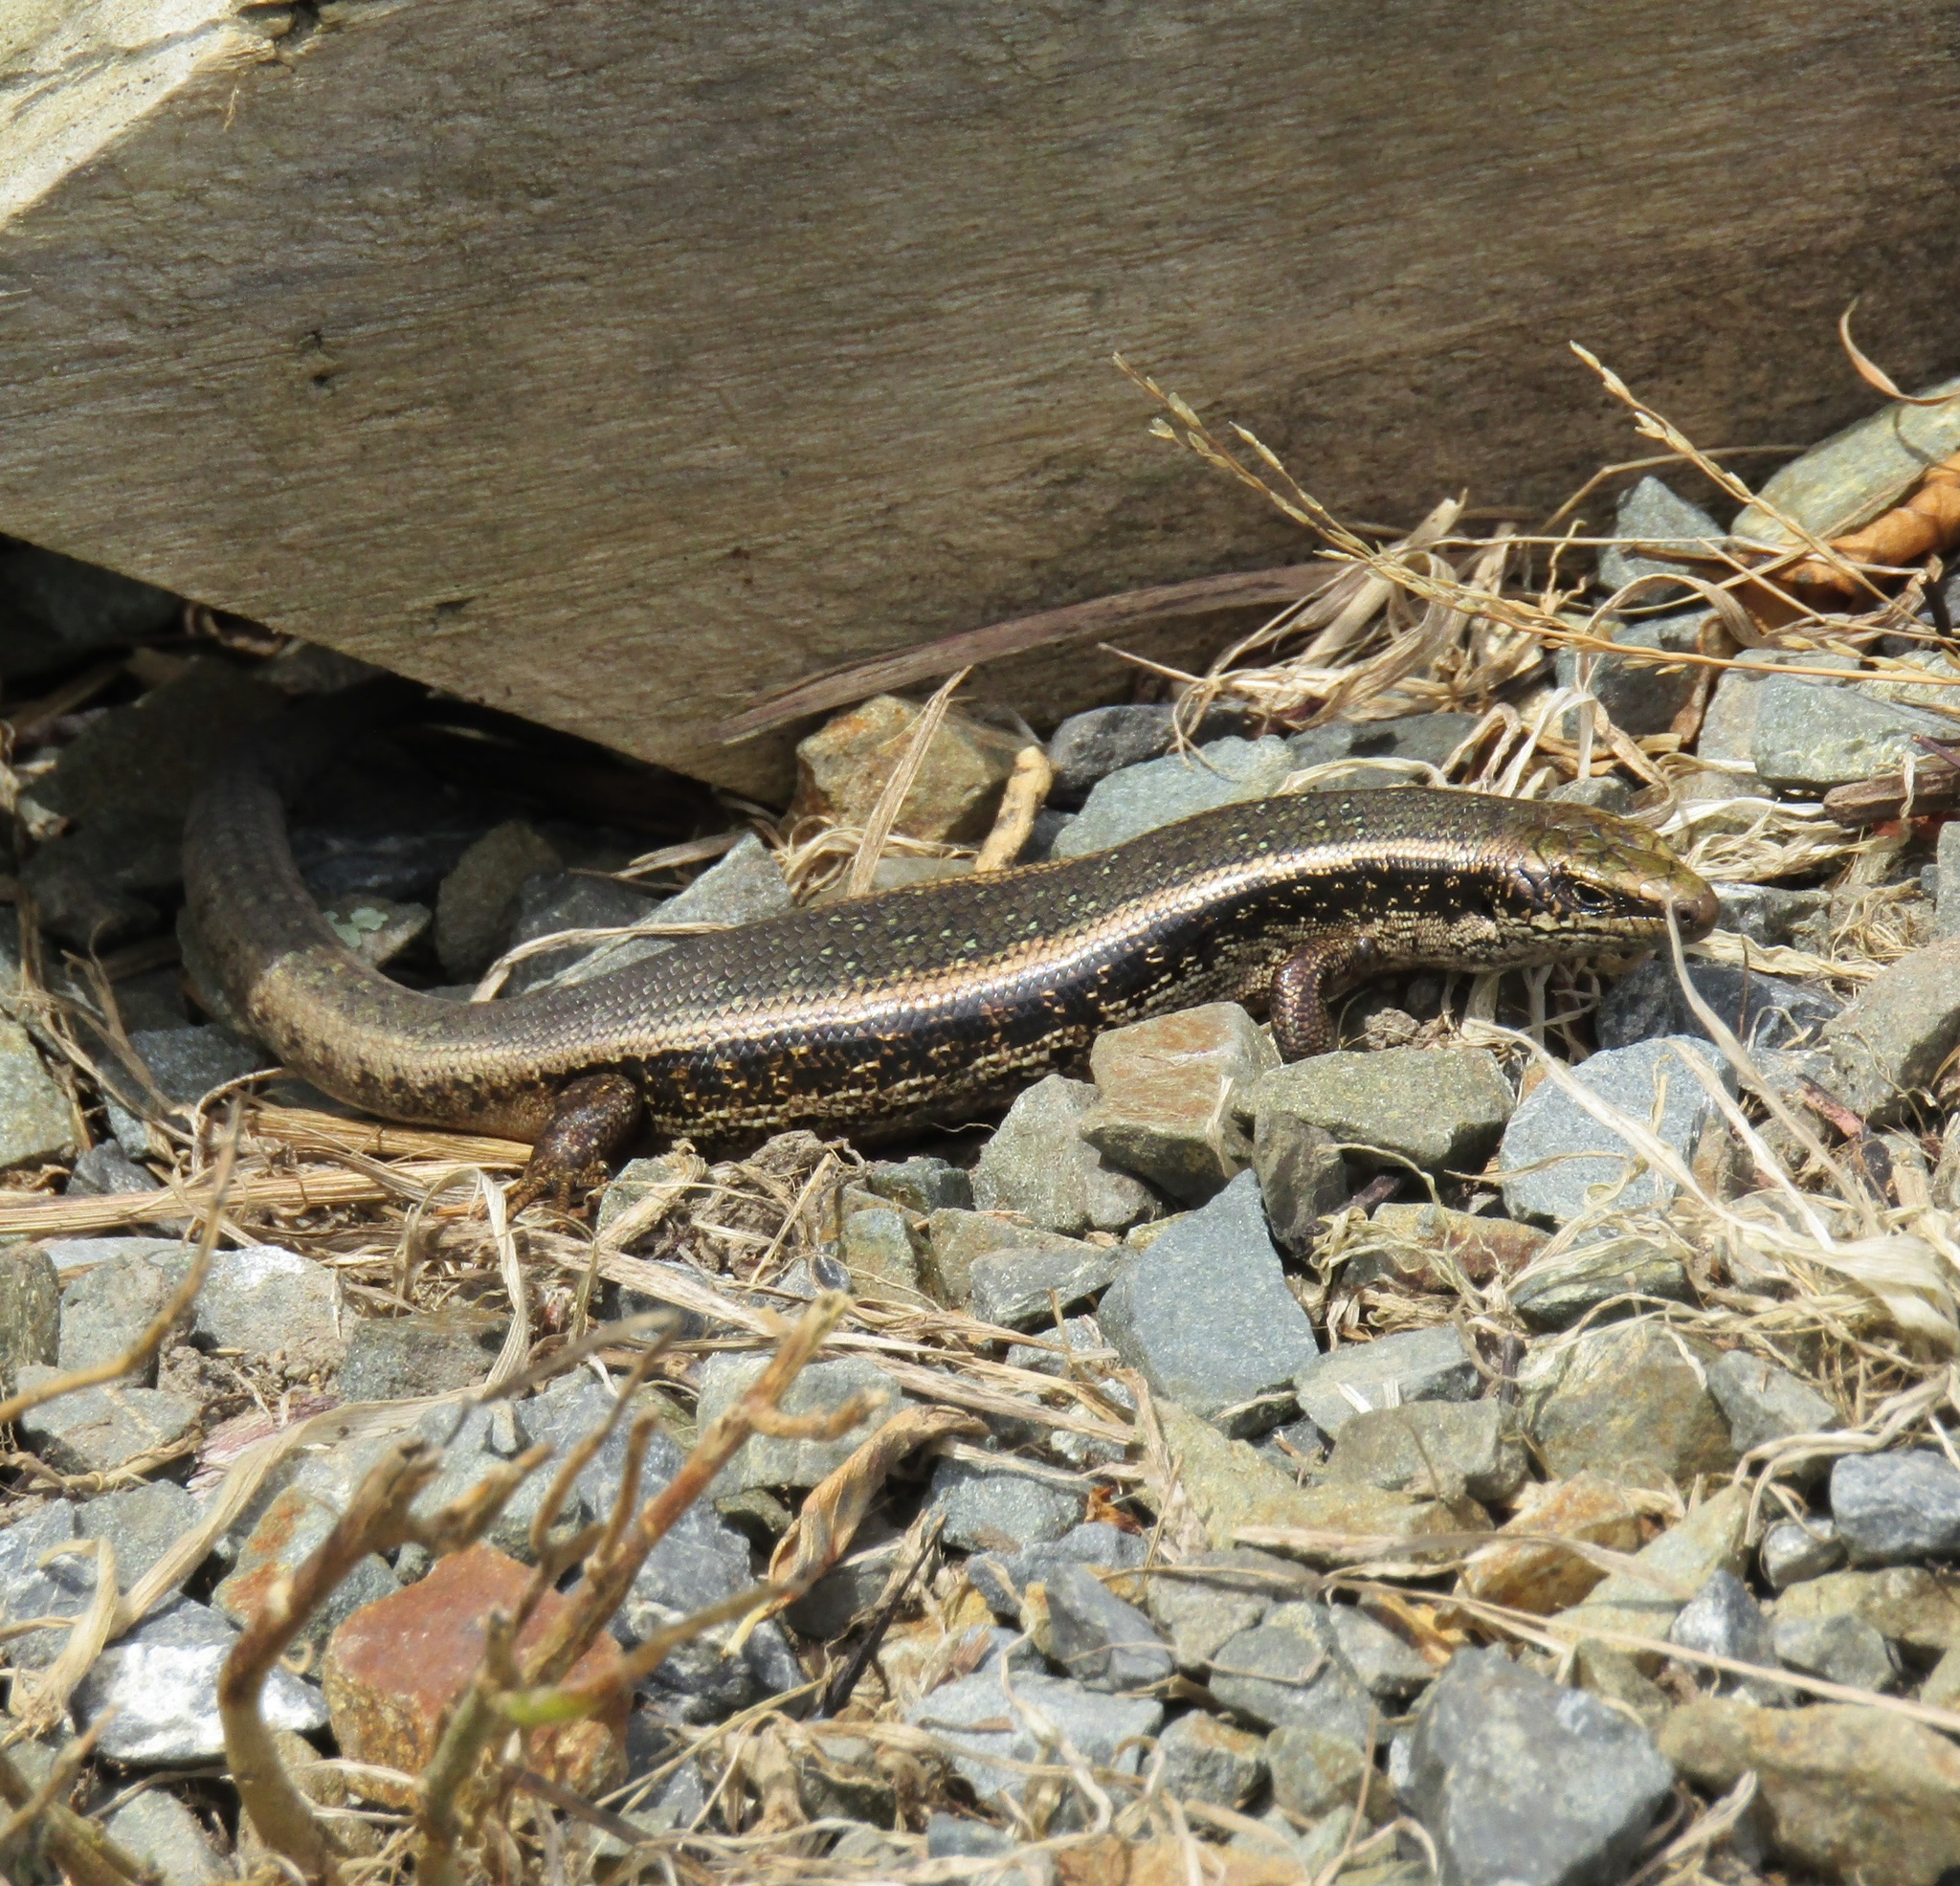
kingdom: Animalia
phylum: Chordata
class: Squamata
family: Scincidae
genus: Oligosoma
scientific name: Oligosoma kokowai
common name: Northern spotted skink
